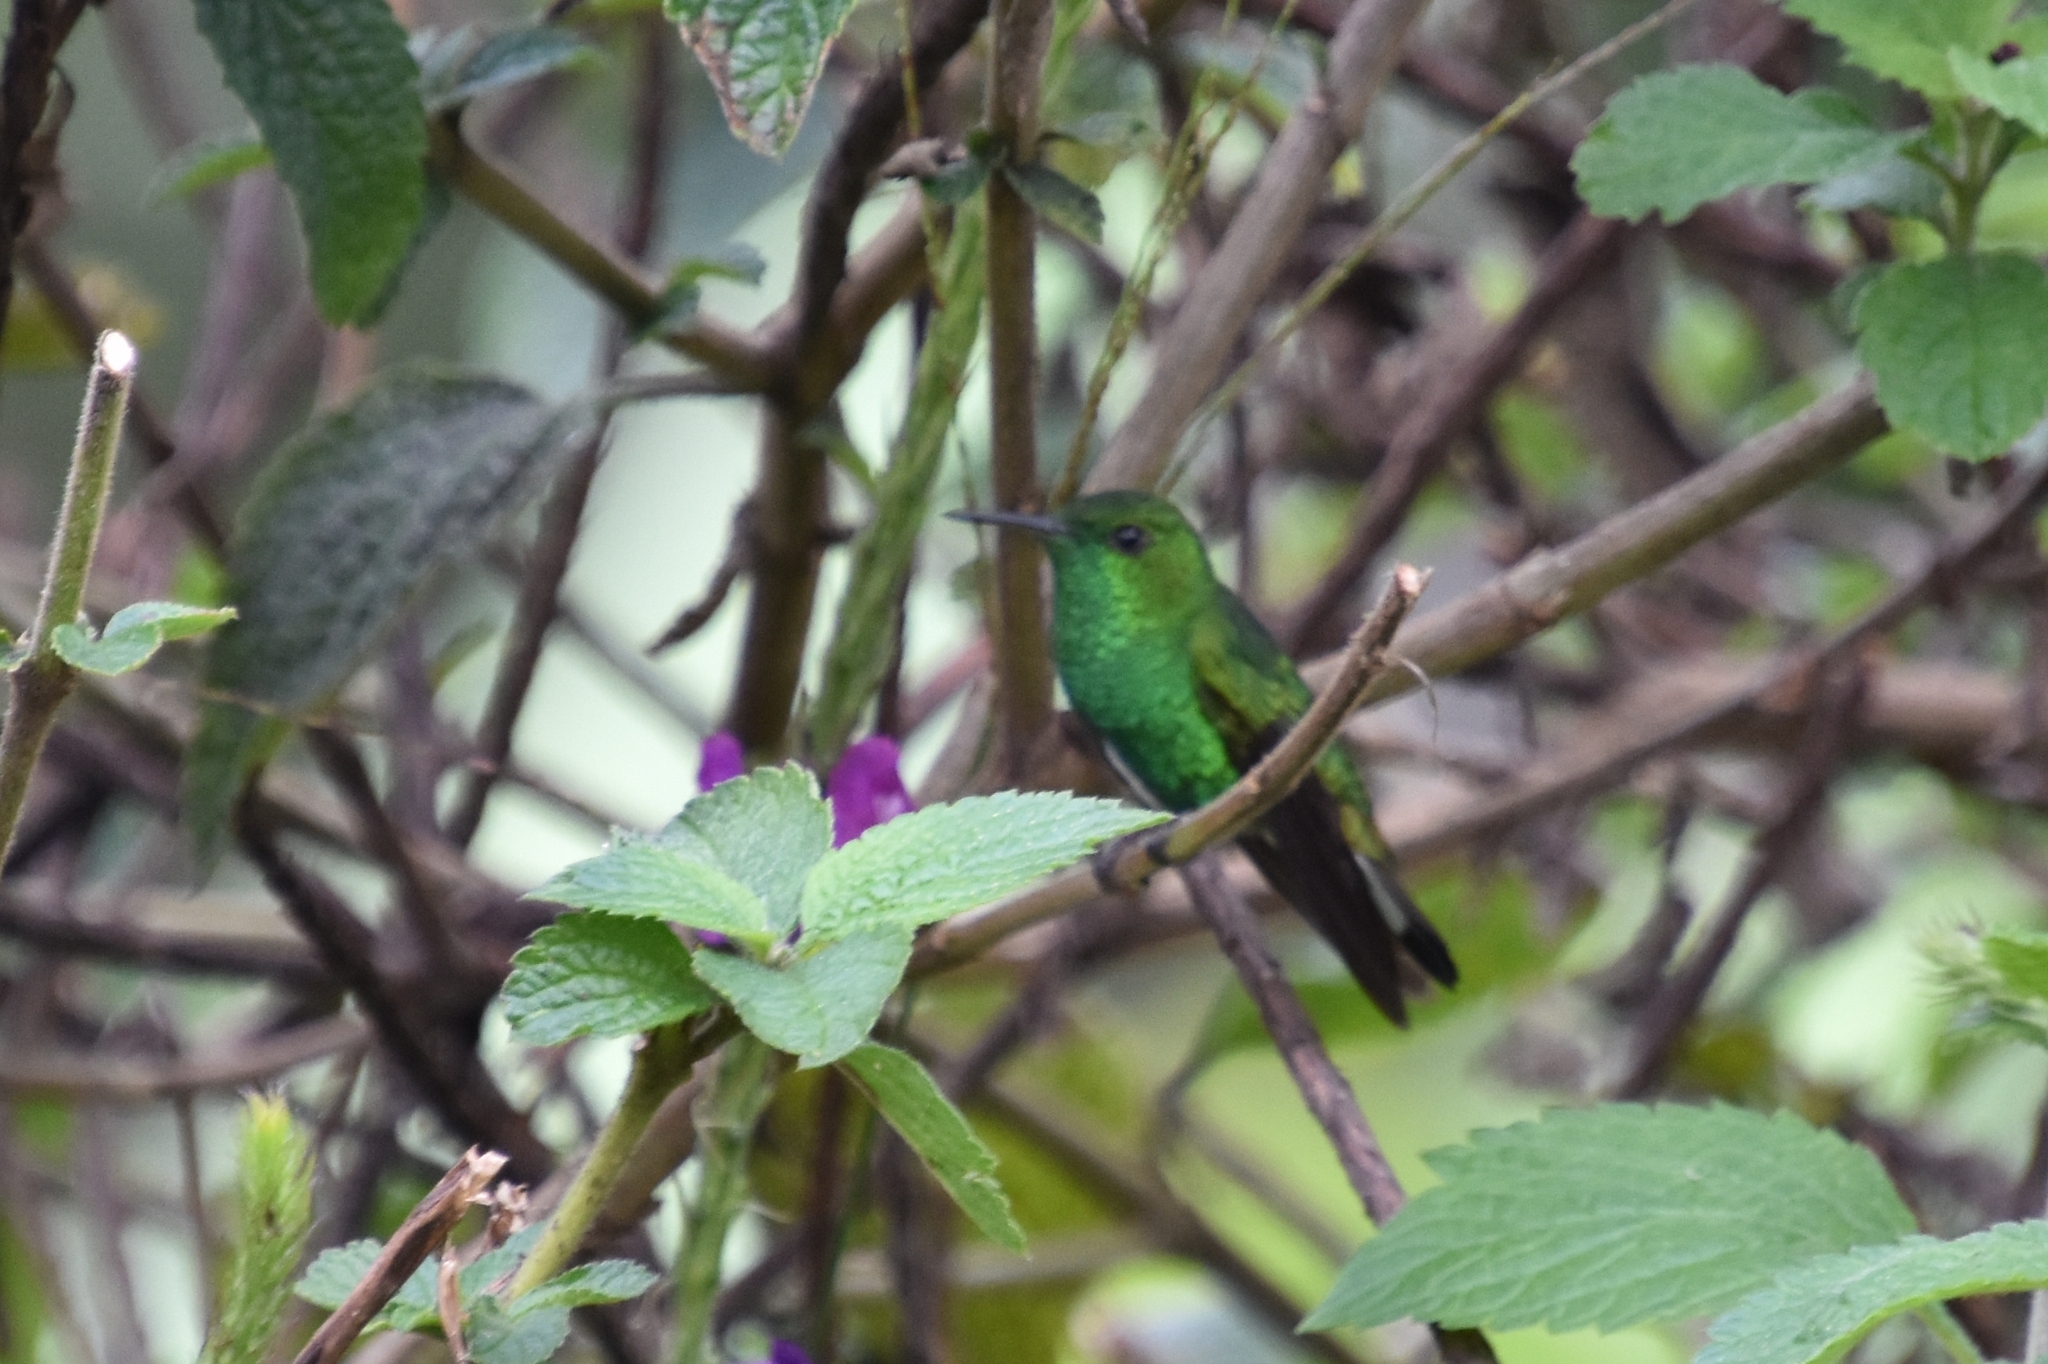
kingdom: Animalia
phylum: Chordata
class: Aves
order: Apodiformes
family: Trochilidae
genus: Microchera
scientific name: Microchera chionura
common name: White-tailed emerald
